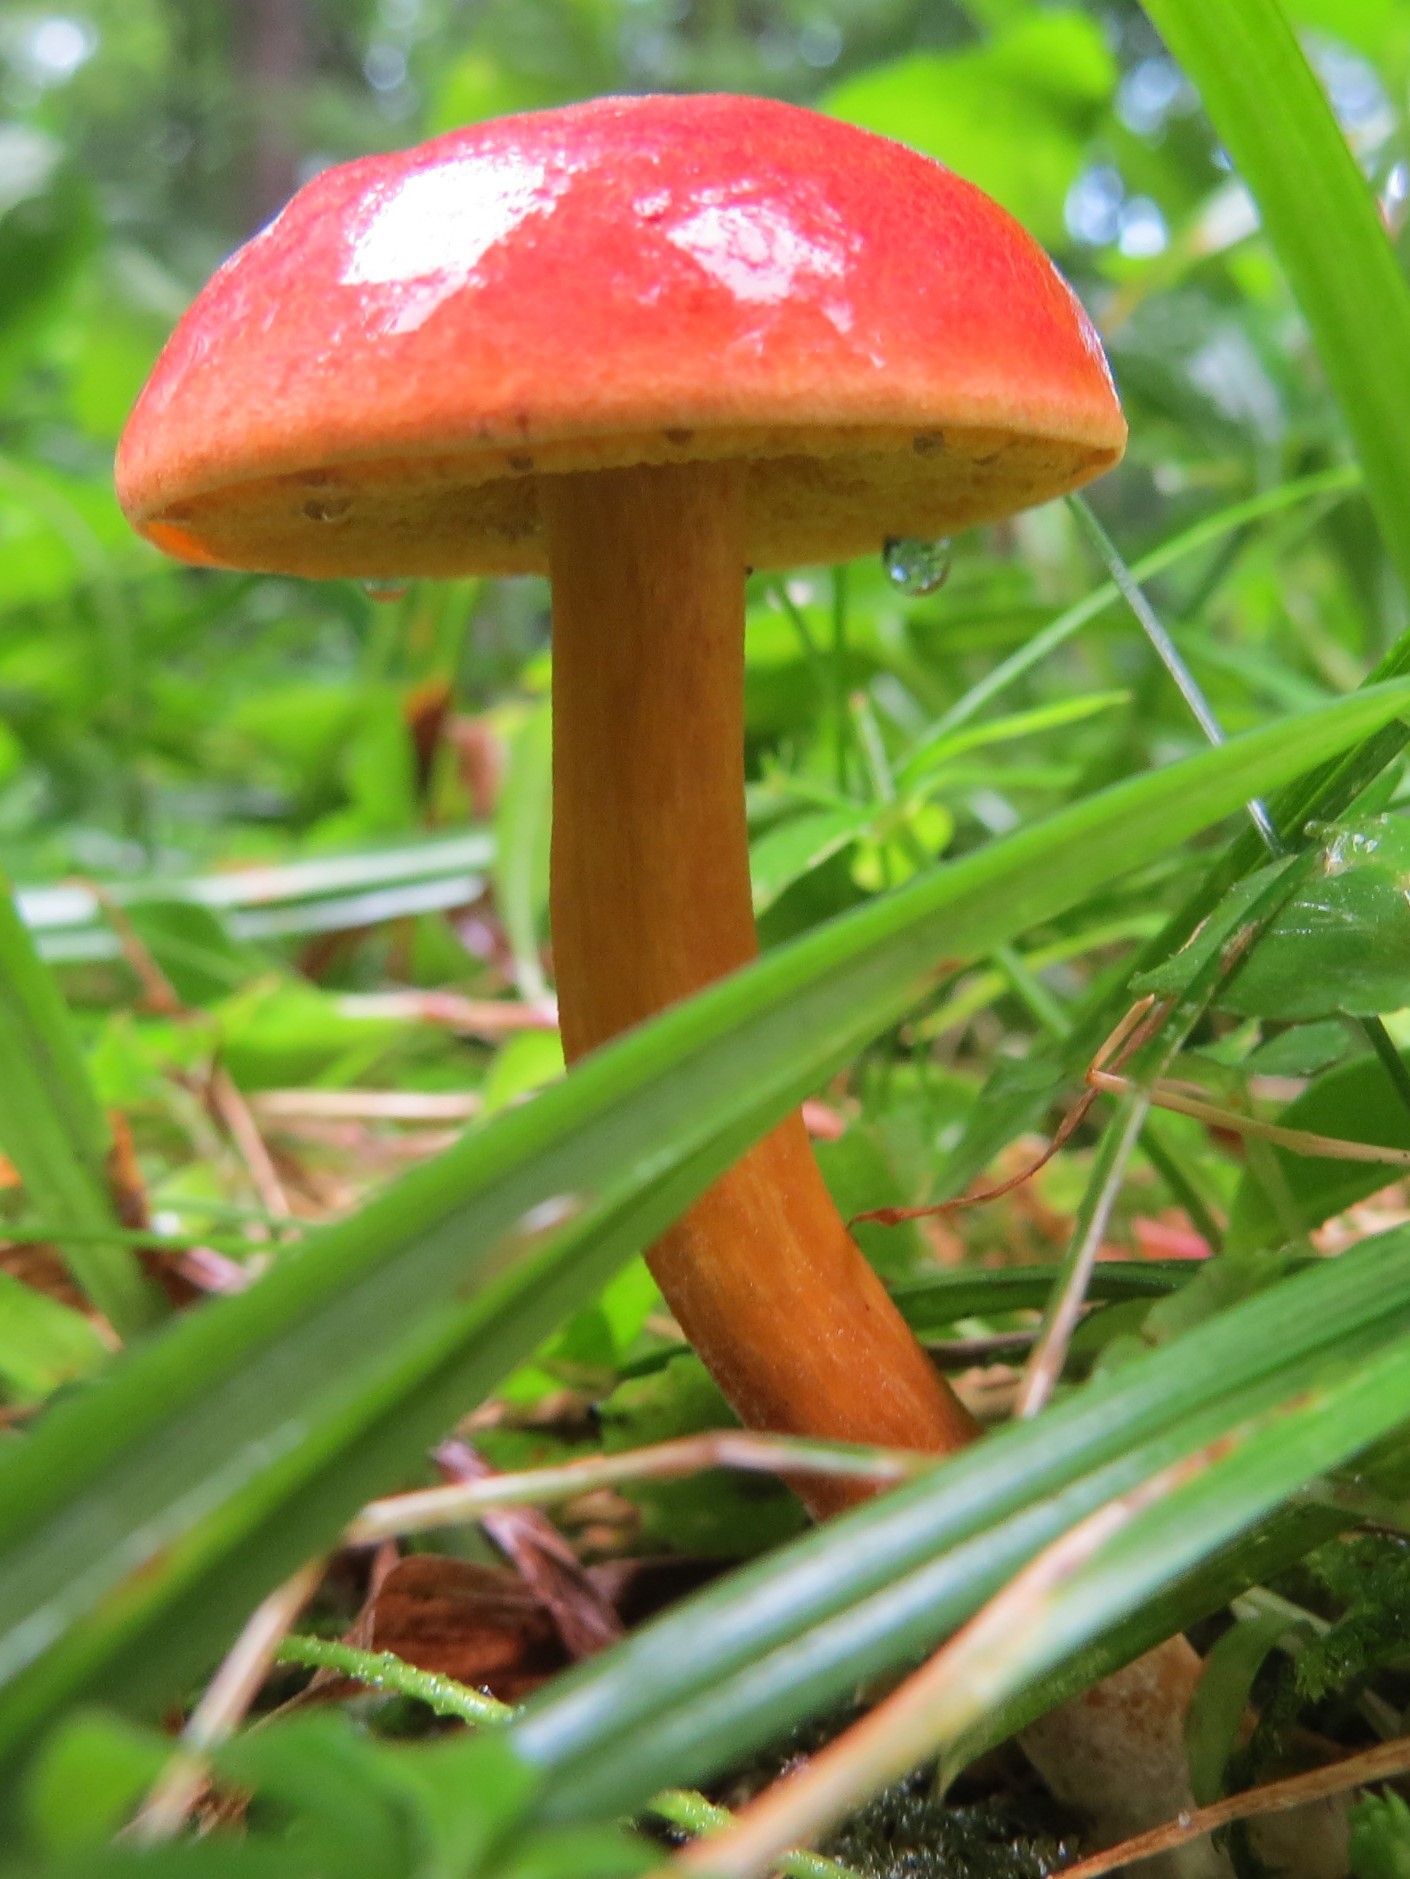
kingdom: Fungi
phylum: Basidiomycota
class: Agaricomycetes
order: Boletales
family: Boletaceae
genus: Hortiboletus
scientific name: Hortiboletus rubellus
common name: Ruby bolete
